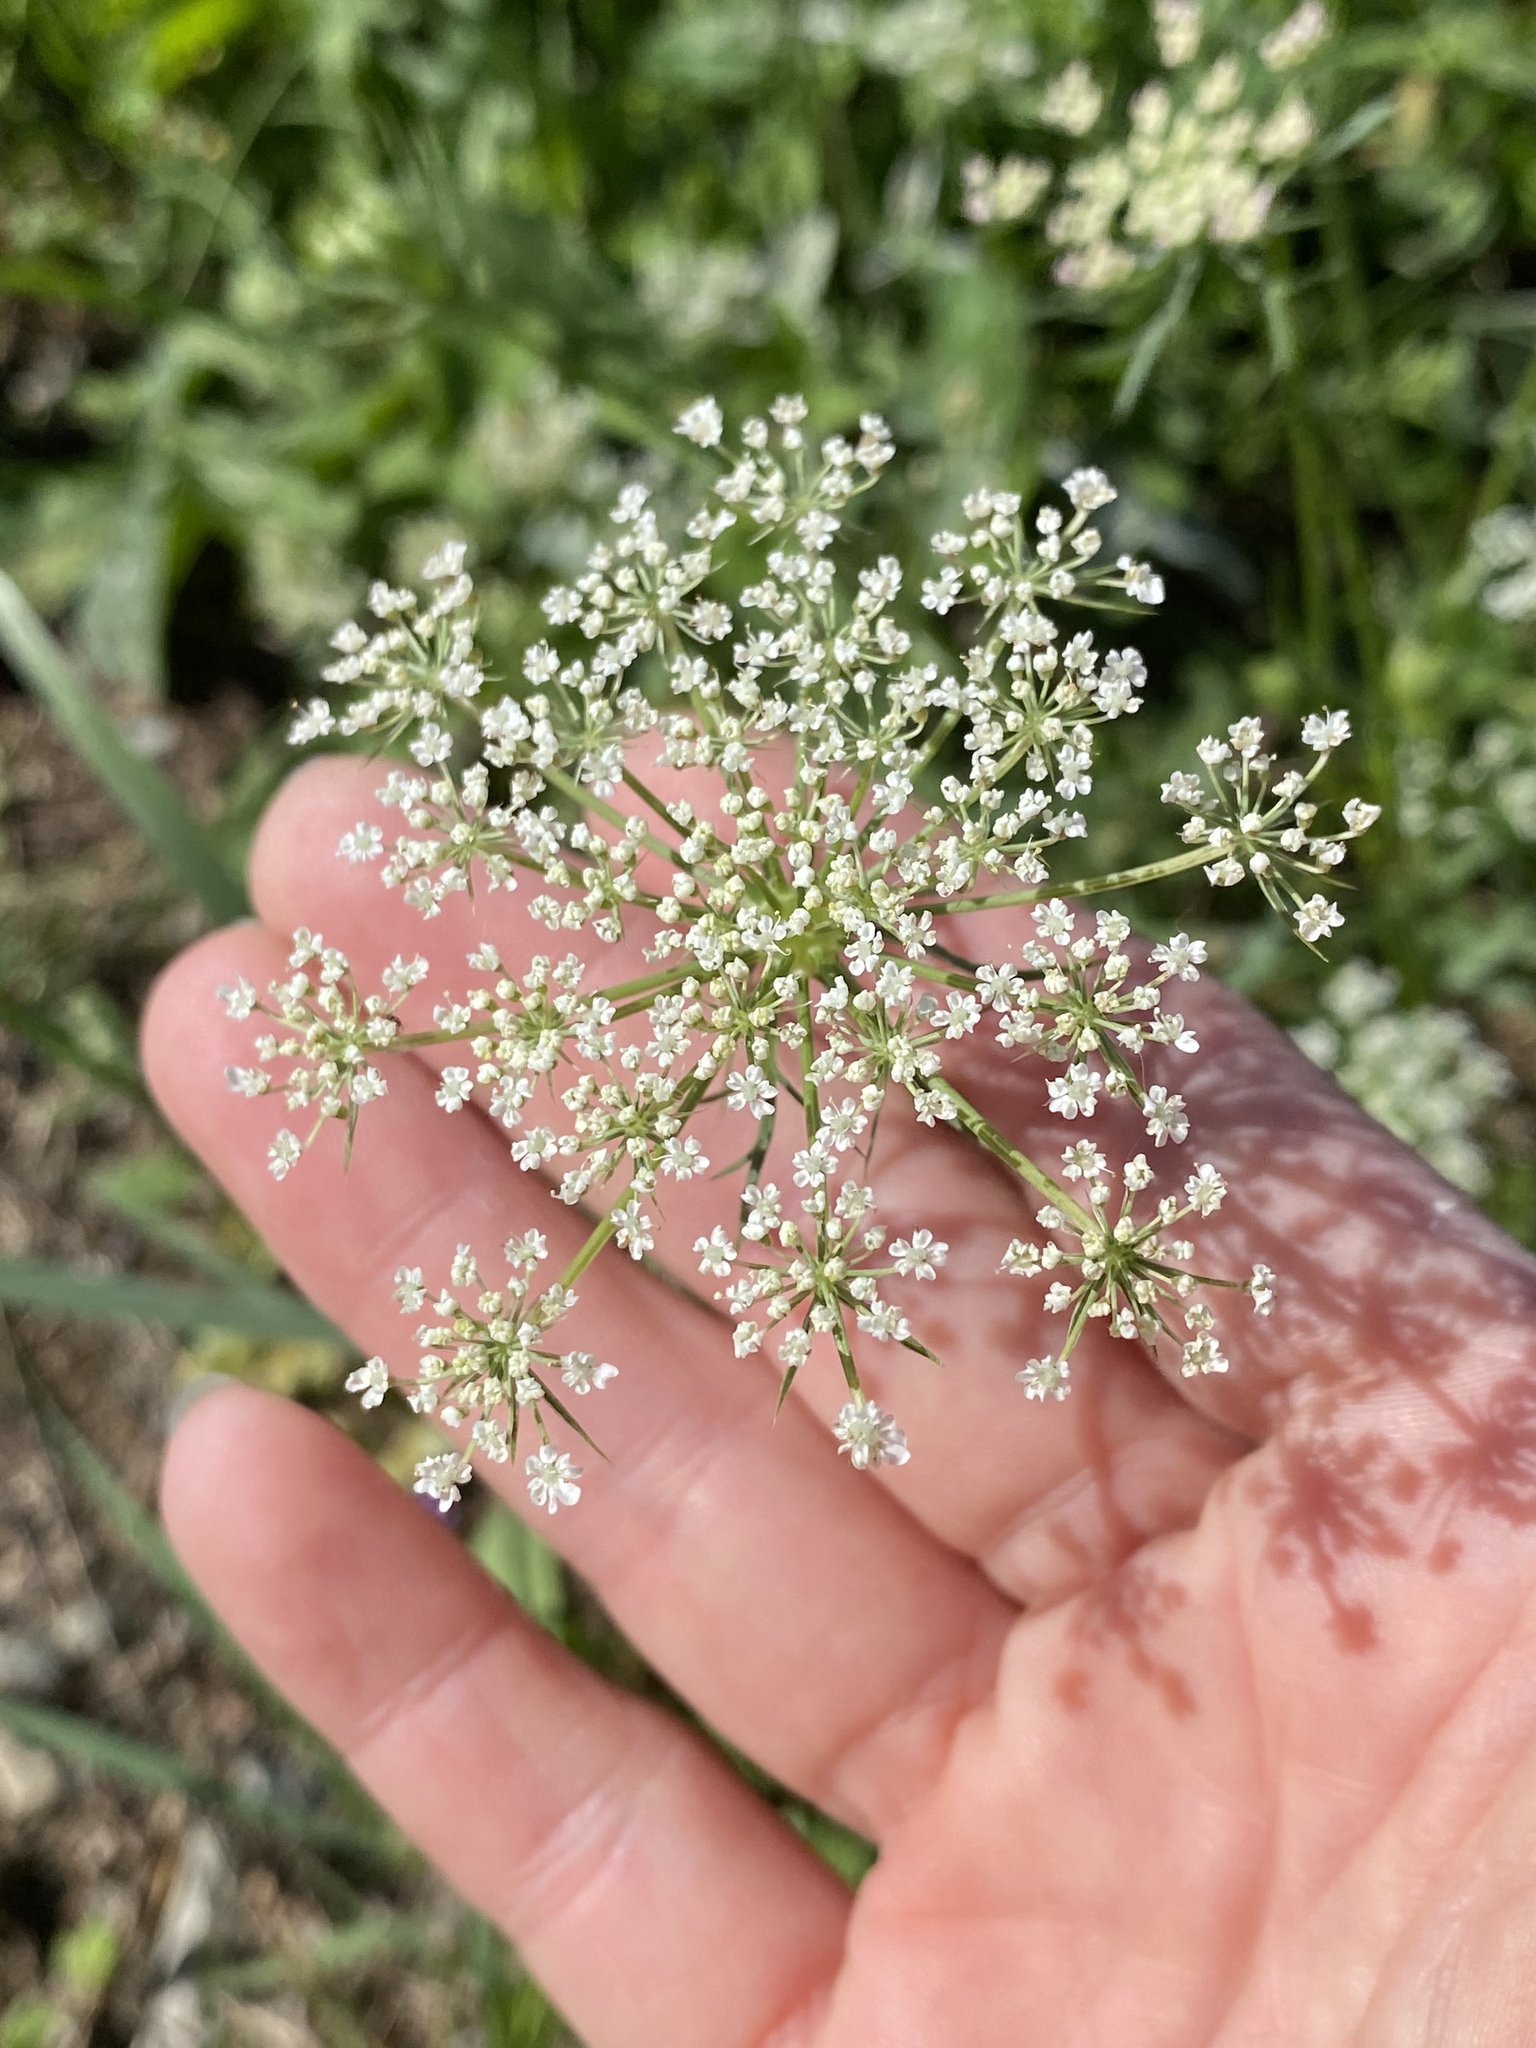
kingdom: Plantae
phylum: Tracheophyta
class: Magnoliopsida
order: Apiales
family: Apiaceae
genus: Daucus
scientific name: Daucus carota
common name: Wild carrot
